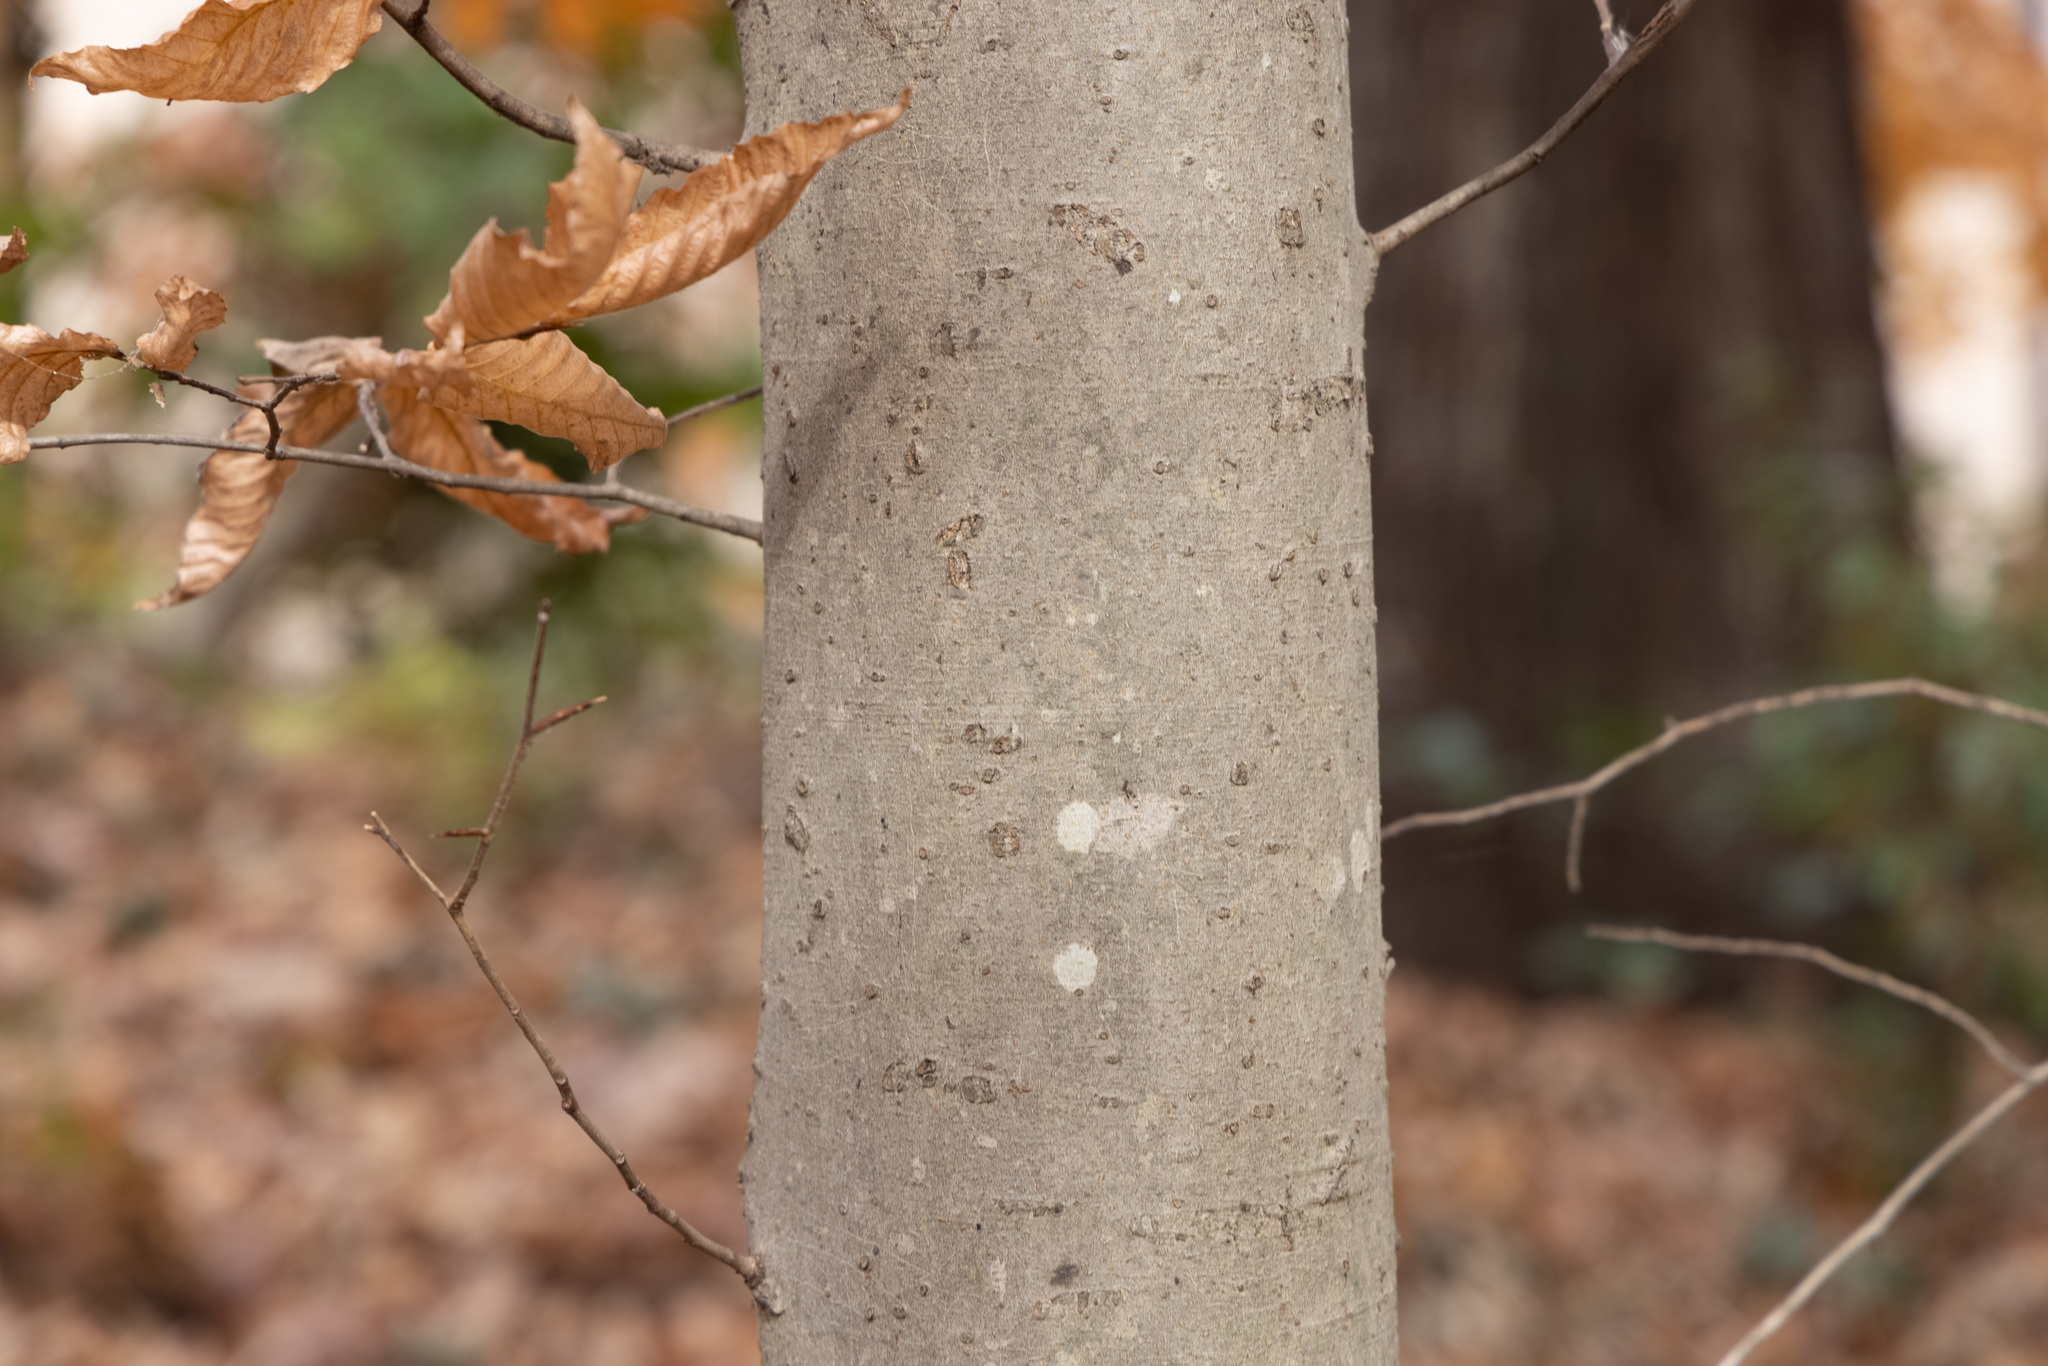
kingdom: Plantae
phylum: Tracheophyta
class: Magnoliopsida
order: Fagales
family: Fagaceae
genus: Fagus
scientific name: Fagus grandifolia
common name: American beech
